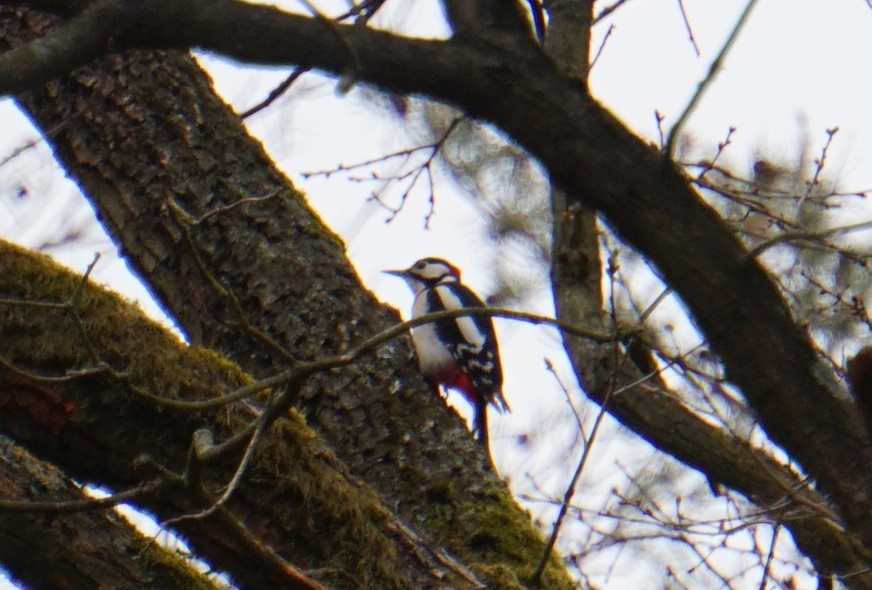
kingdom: Animalia
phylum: Chordata
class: Aves
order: Piciformes
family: Picidae
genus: Dendrocopos
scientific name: Dendrocopos major
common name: Great spotted woodpecker
